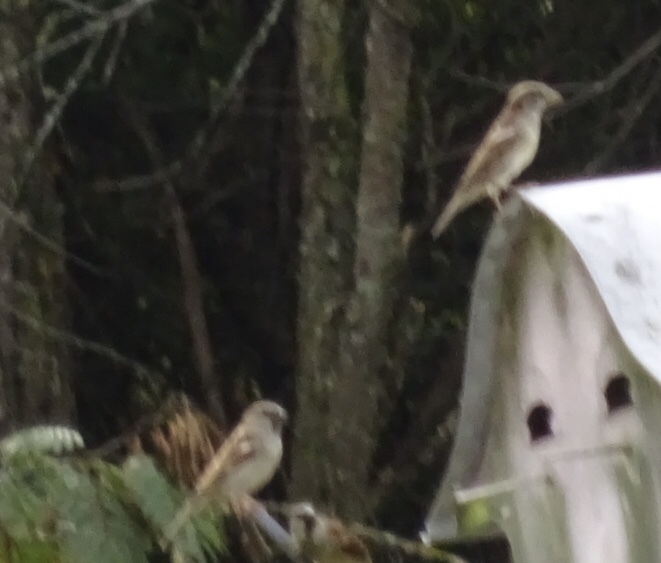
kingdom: Animalia
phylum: Chordata
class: Aves
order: Passeriformes
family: Passeridae
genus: Passer
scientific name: Passer domesticus
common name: House sparrow
